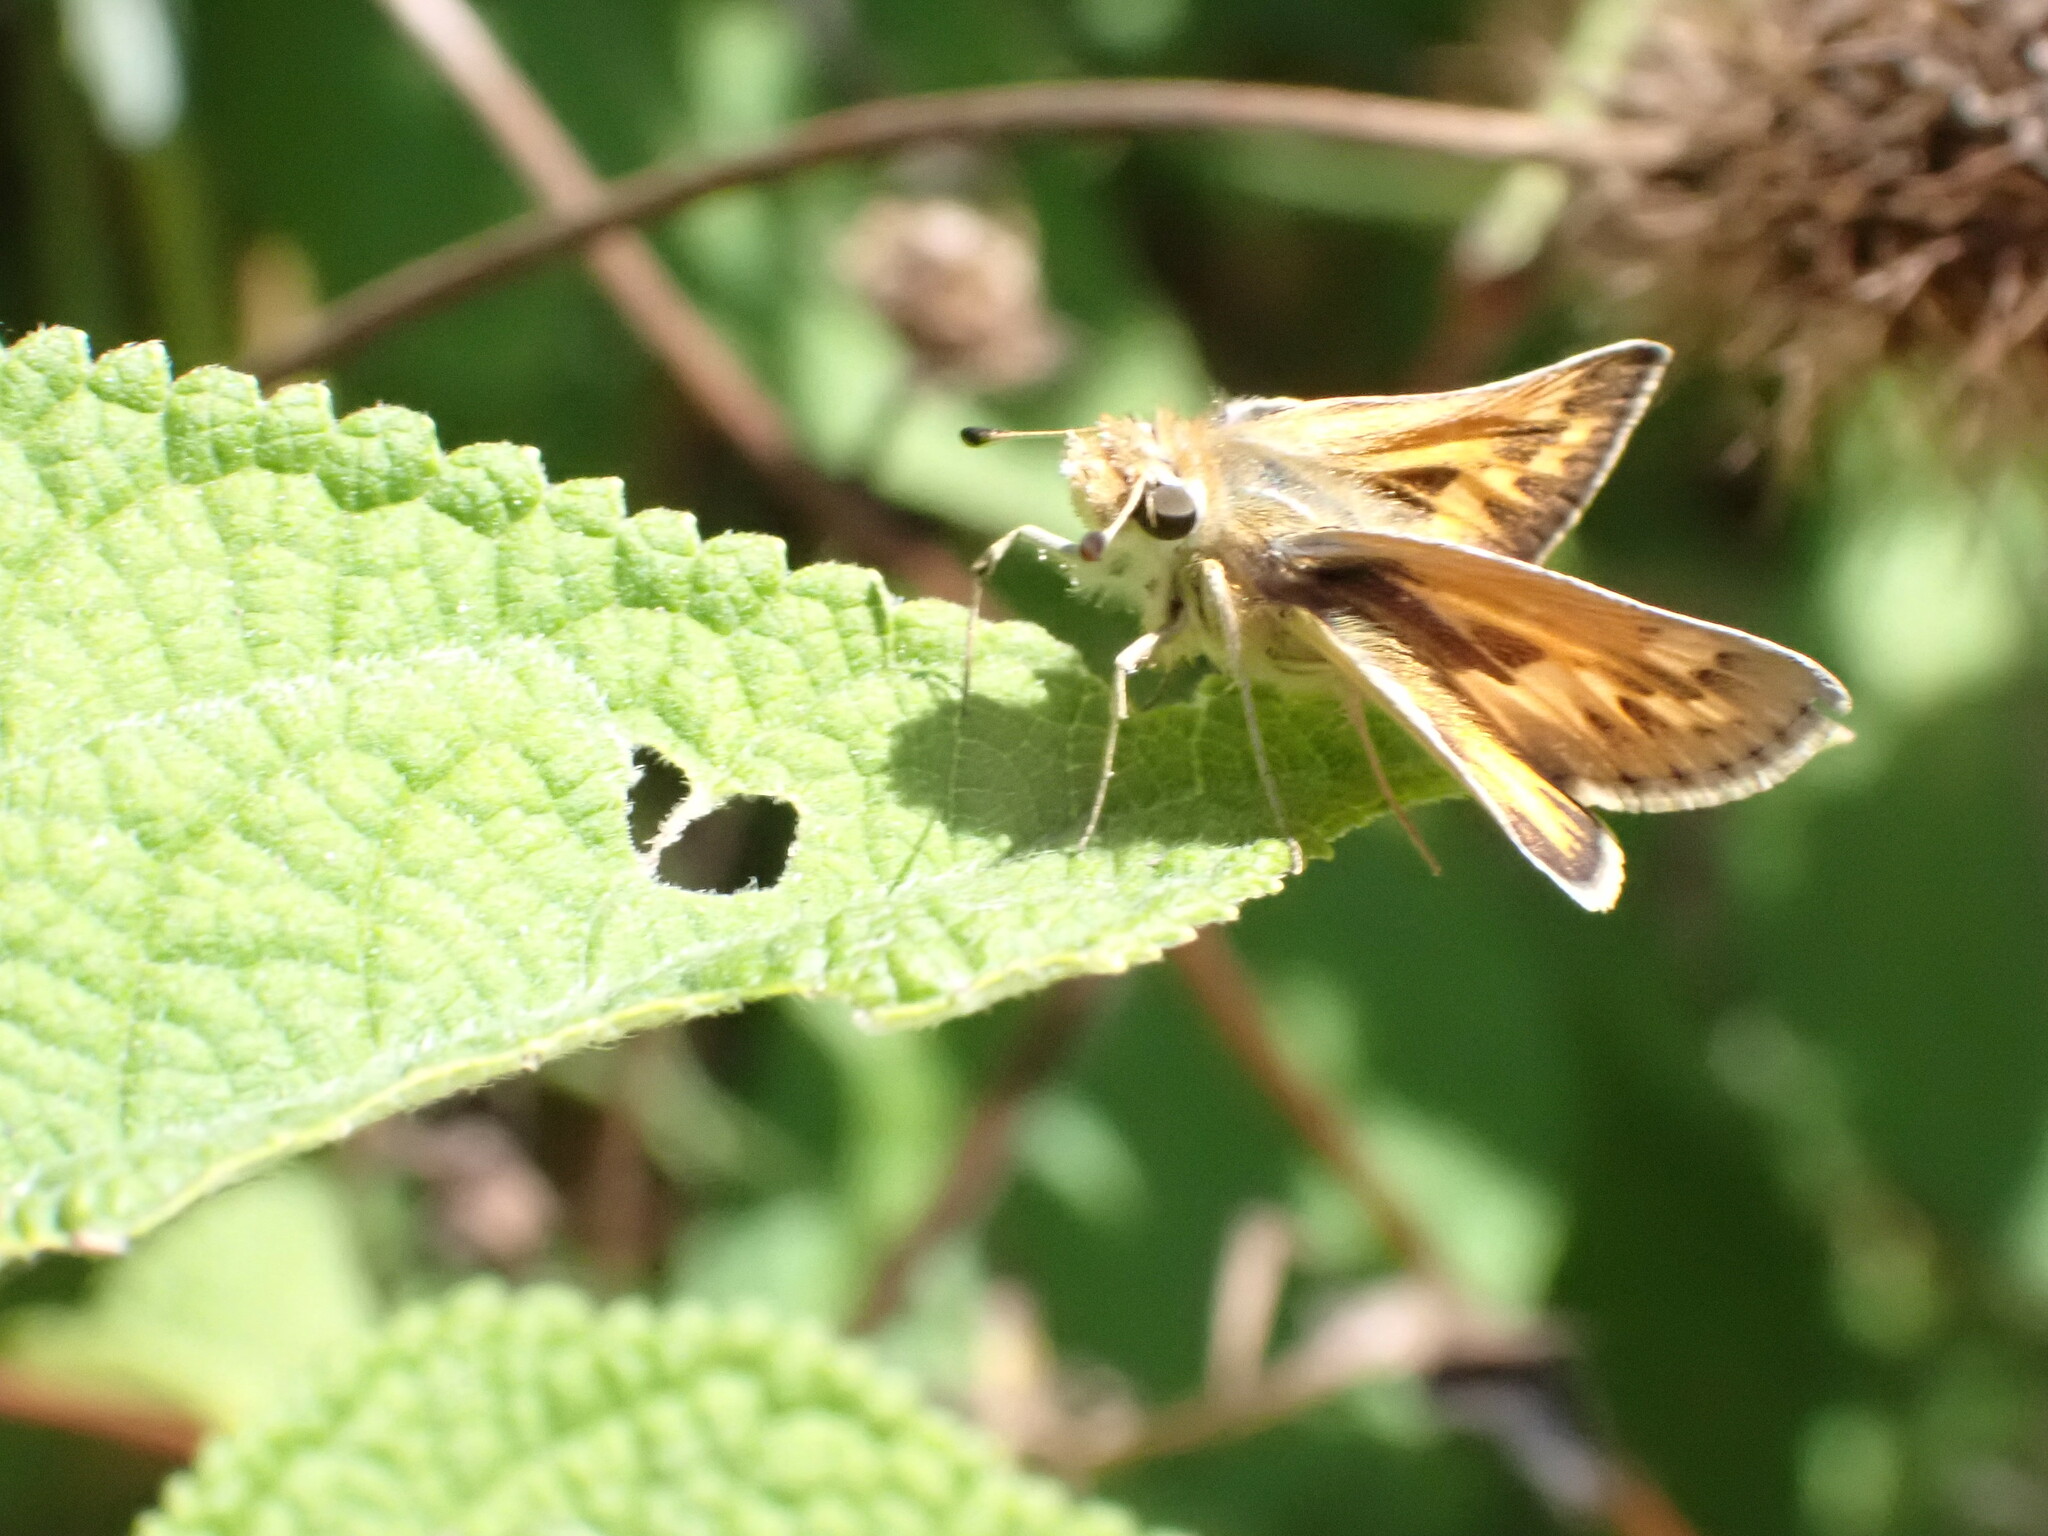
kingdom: Animalia
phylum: Arthropoda
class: Insecta
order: Lepidoptera
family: Hesperiidae
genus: Polites
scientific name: Polites sabuleti
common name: Sandhill skipper
